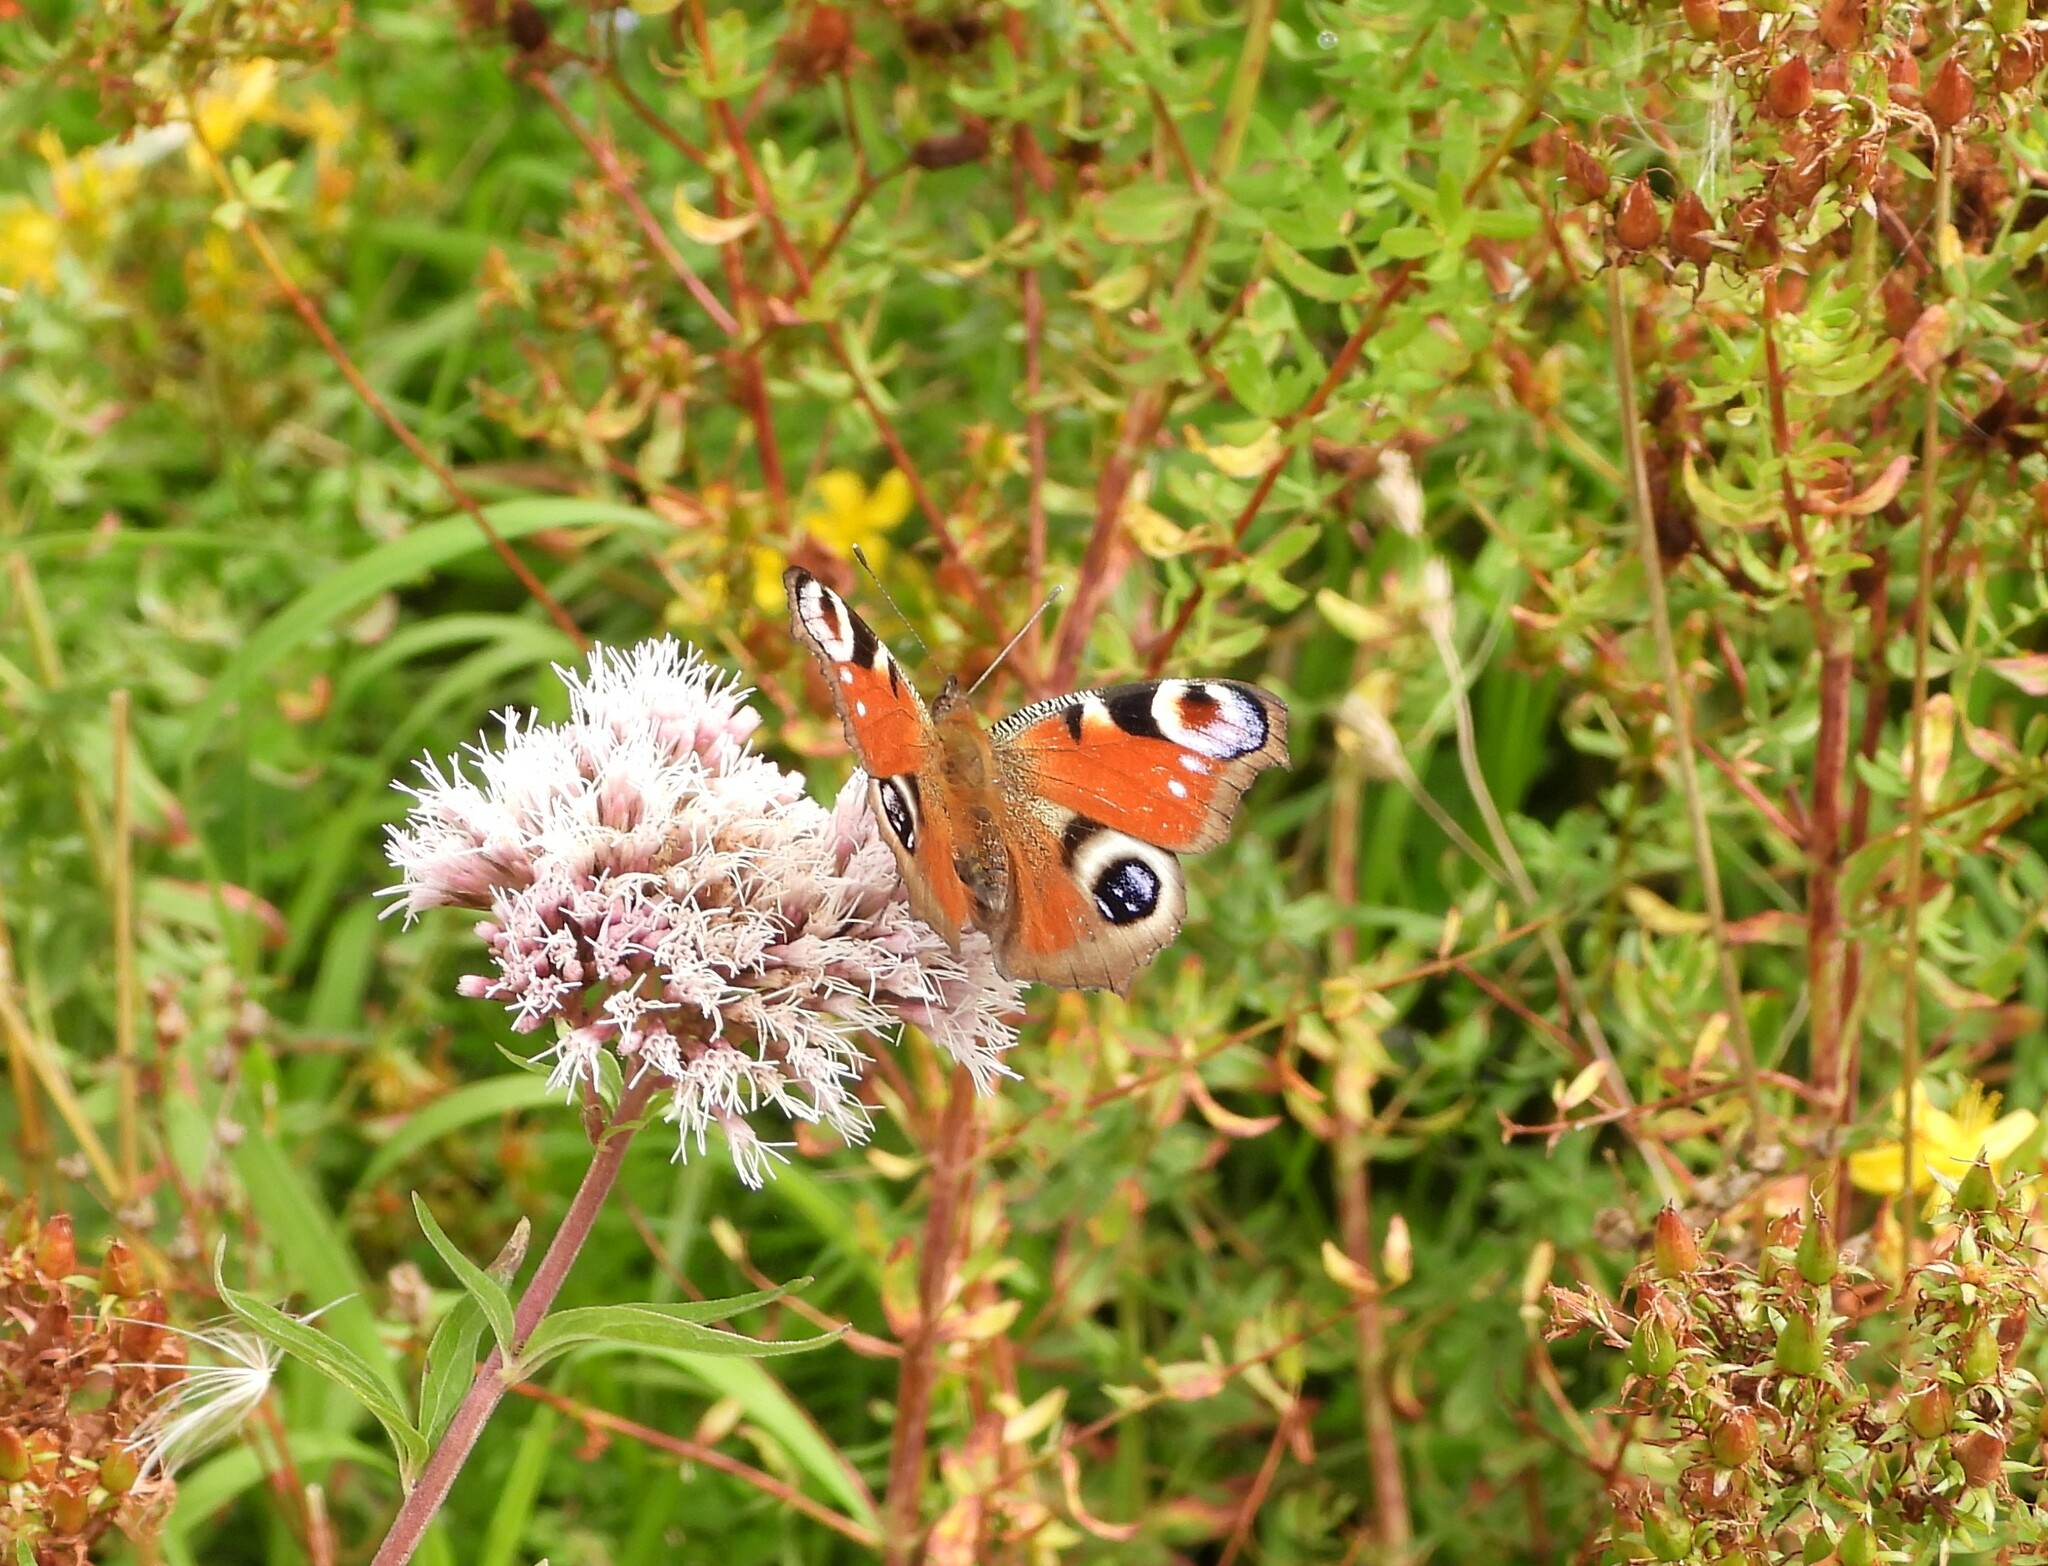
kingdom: Animalia
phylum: Arthropoda
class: Insecta
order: Lepidoptera
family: Nymphalidae
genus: Aglais
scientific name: Aglais io
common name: Peacock
